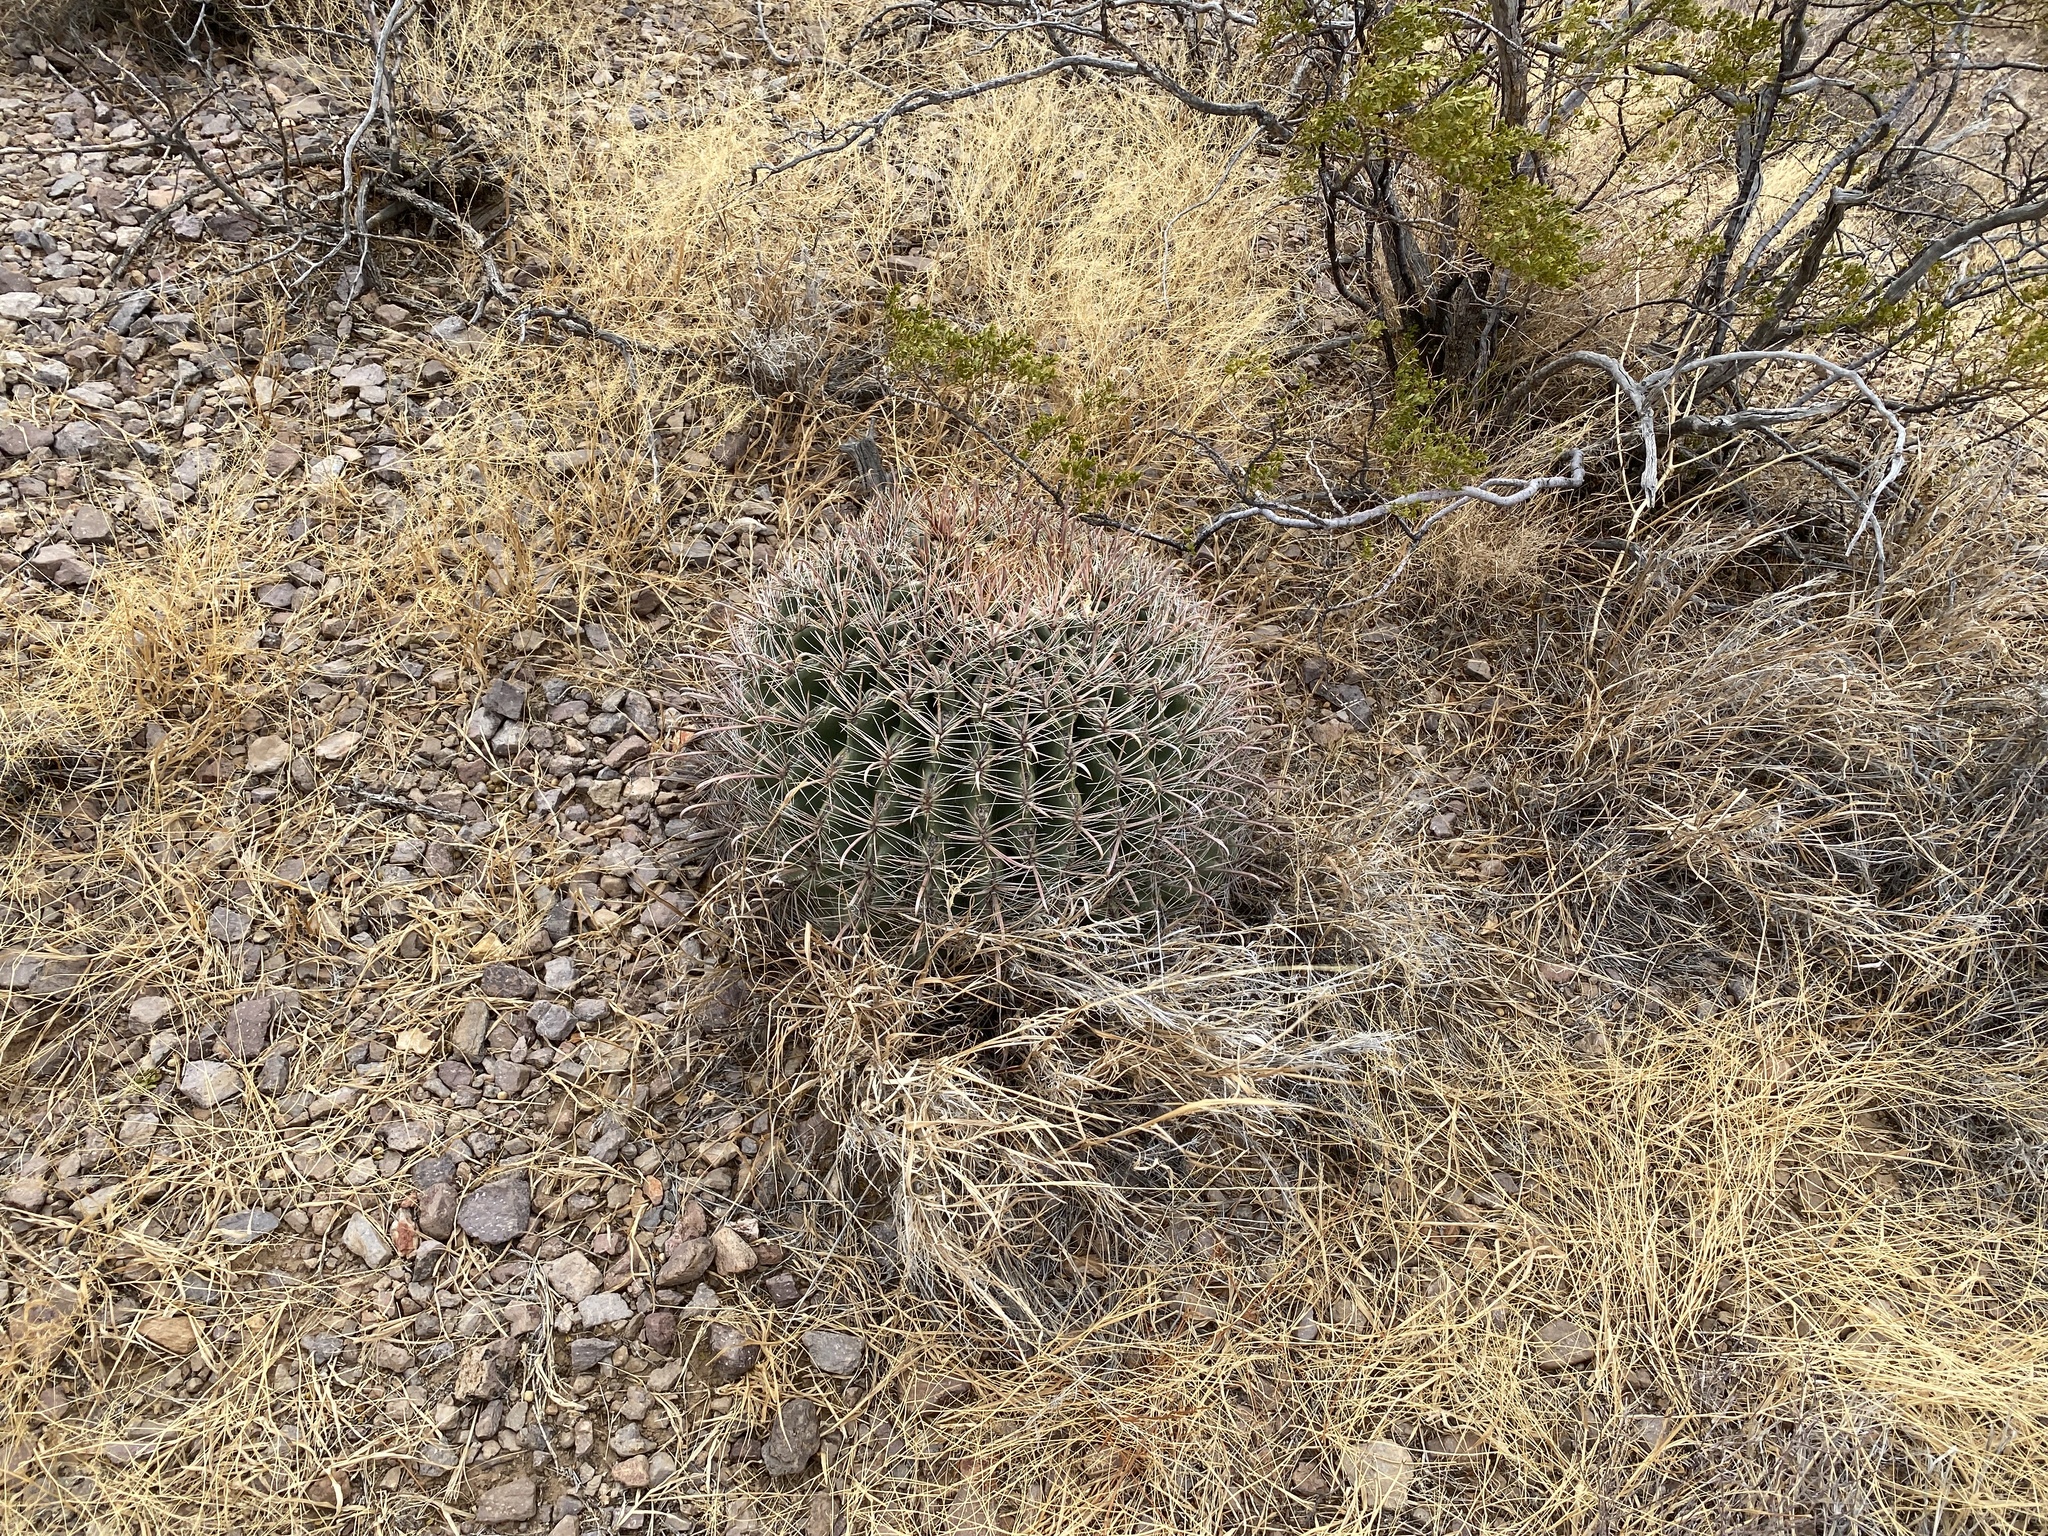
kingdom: Plantae
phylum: Tracheophyta
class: Magnoliopsida
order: Caryophyllales
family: Cactaceae
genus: Ferocactus
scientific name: Ferocactus wislizeni
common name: Candy barrel cactus
